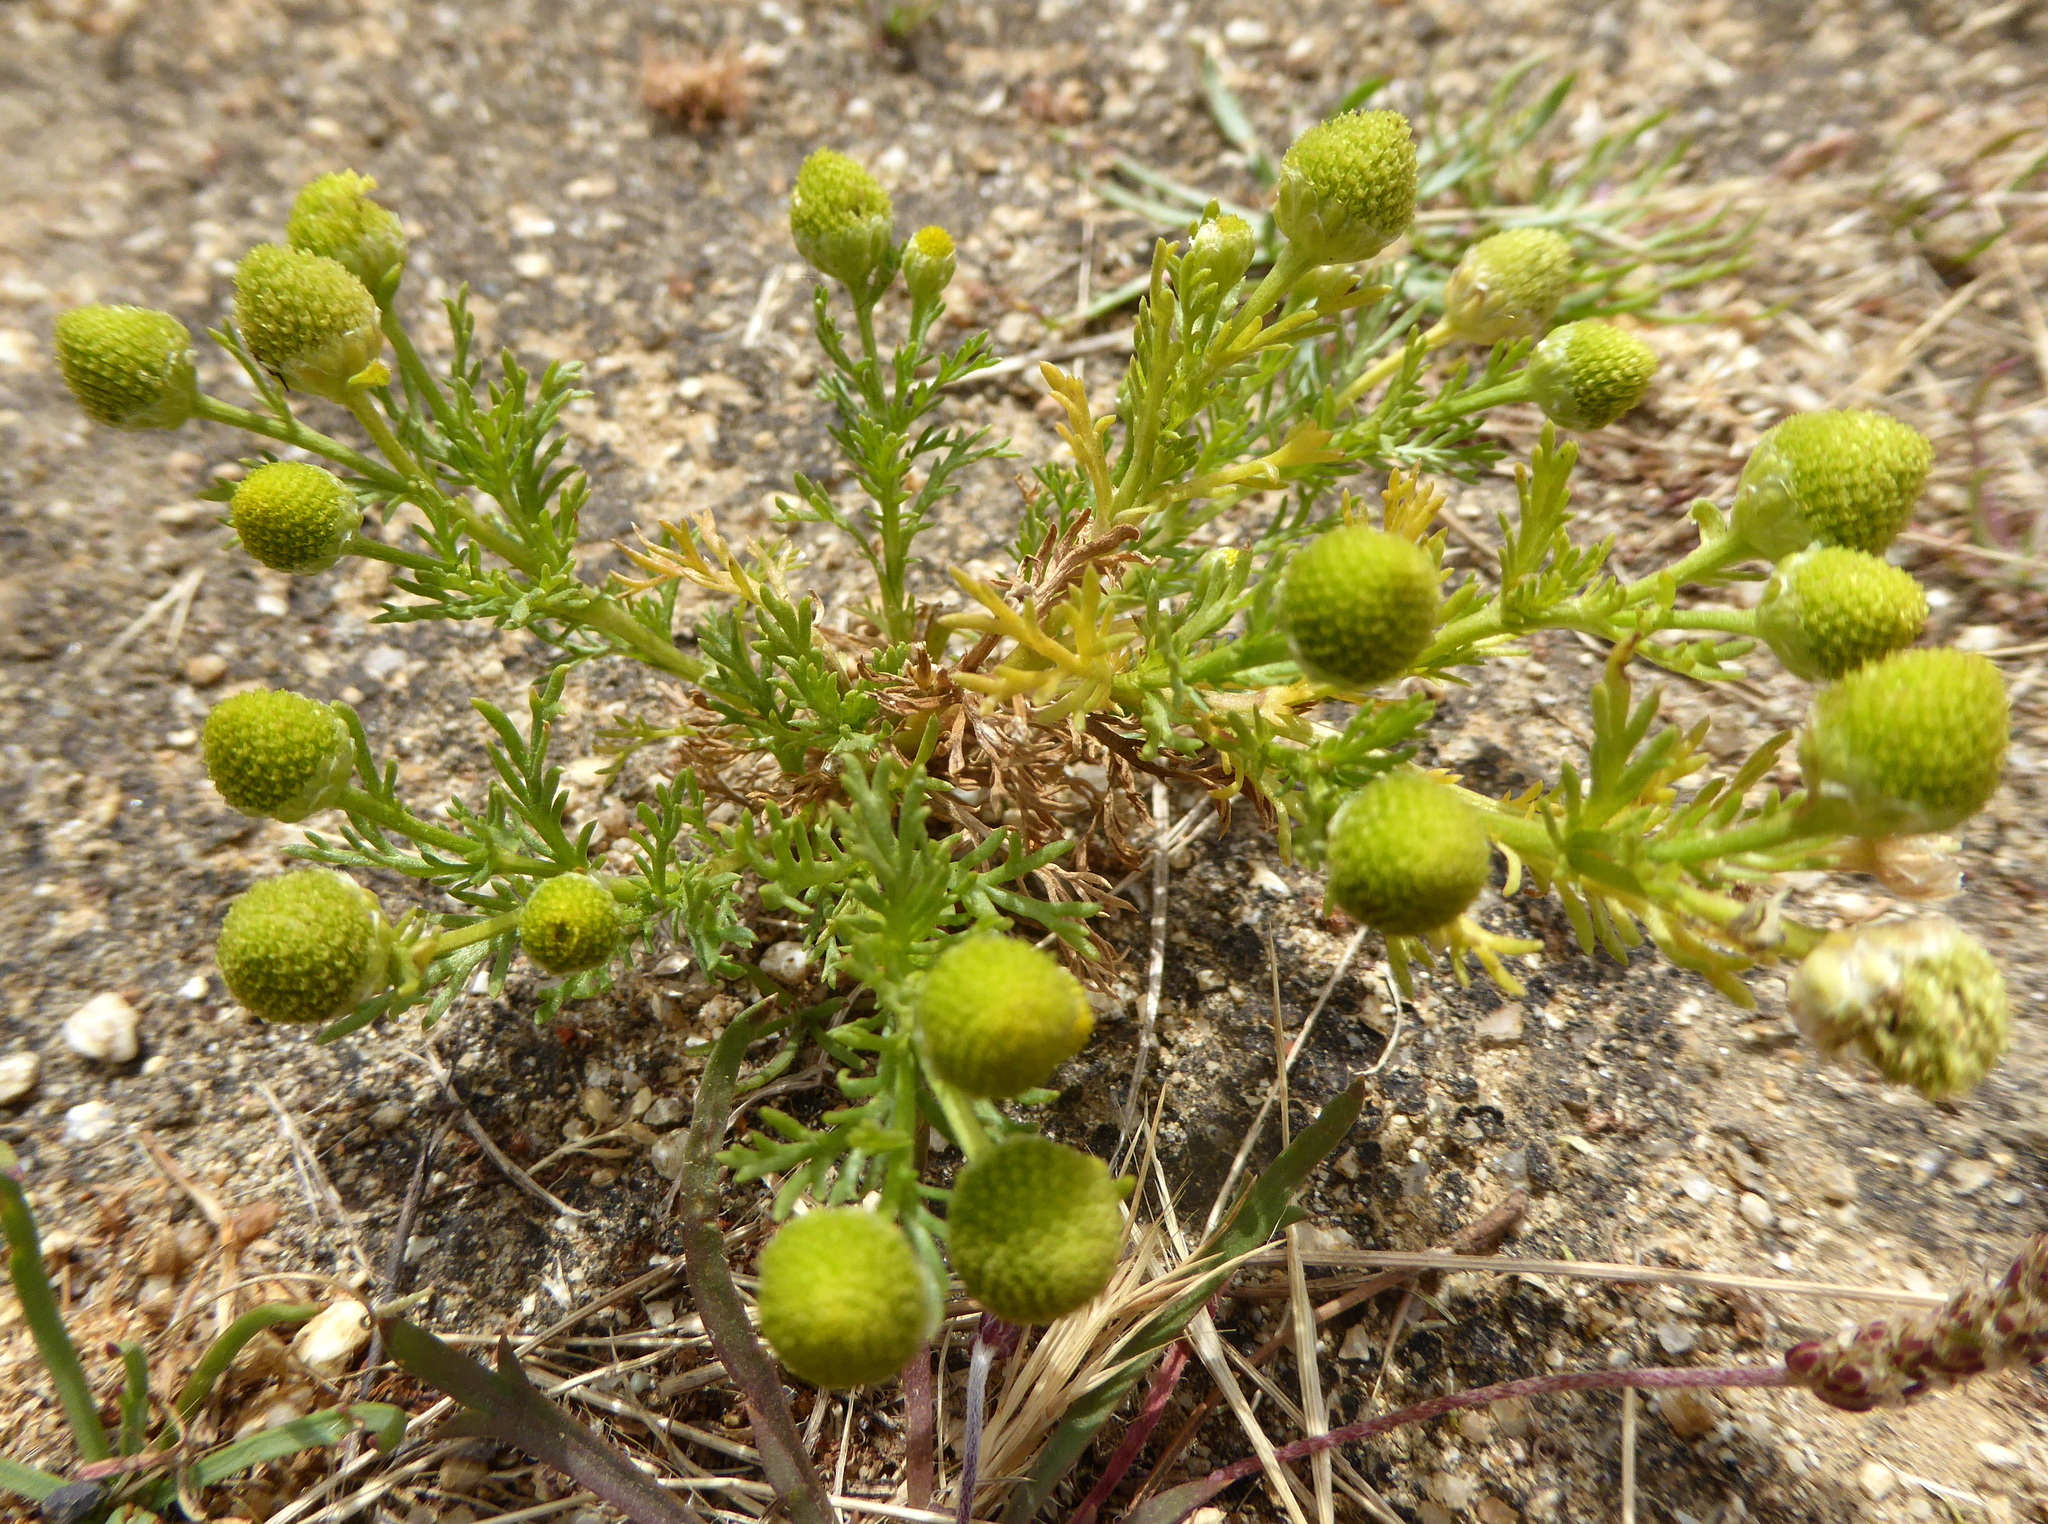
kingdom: Plantae
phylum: Tracheophyta
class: Magnoliopsida
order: Asterales
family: Asteraceae
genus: Matricaria
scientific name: Matricaria discoidea
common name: Disc mayweed
